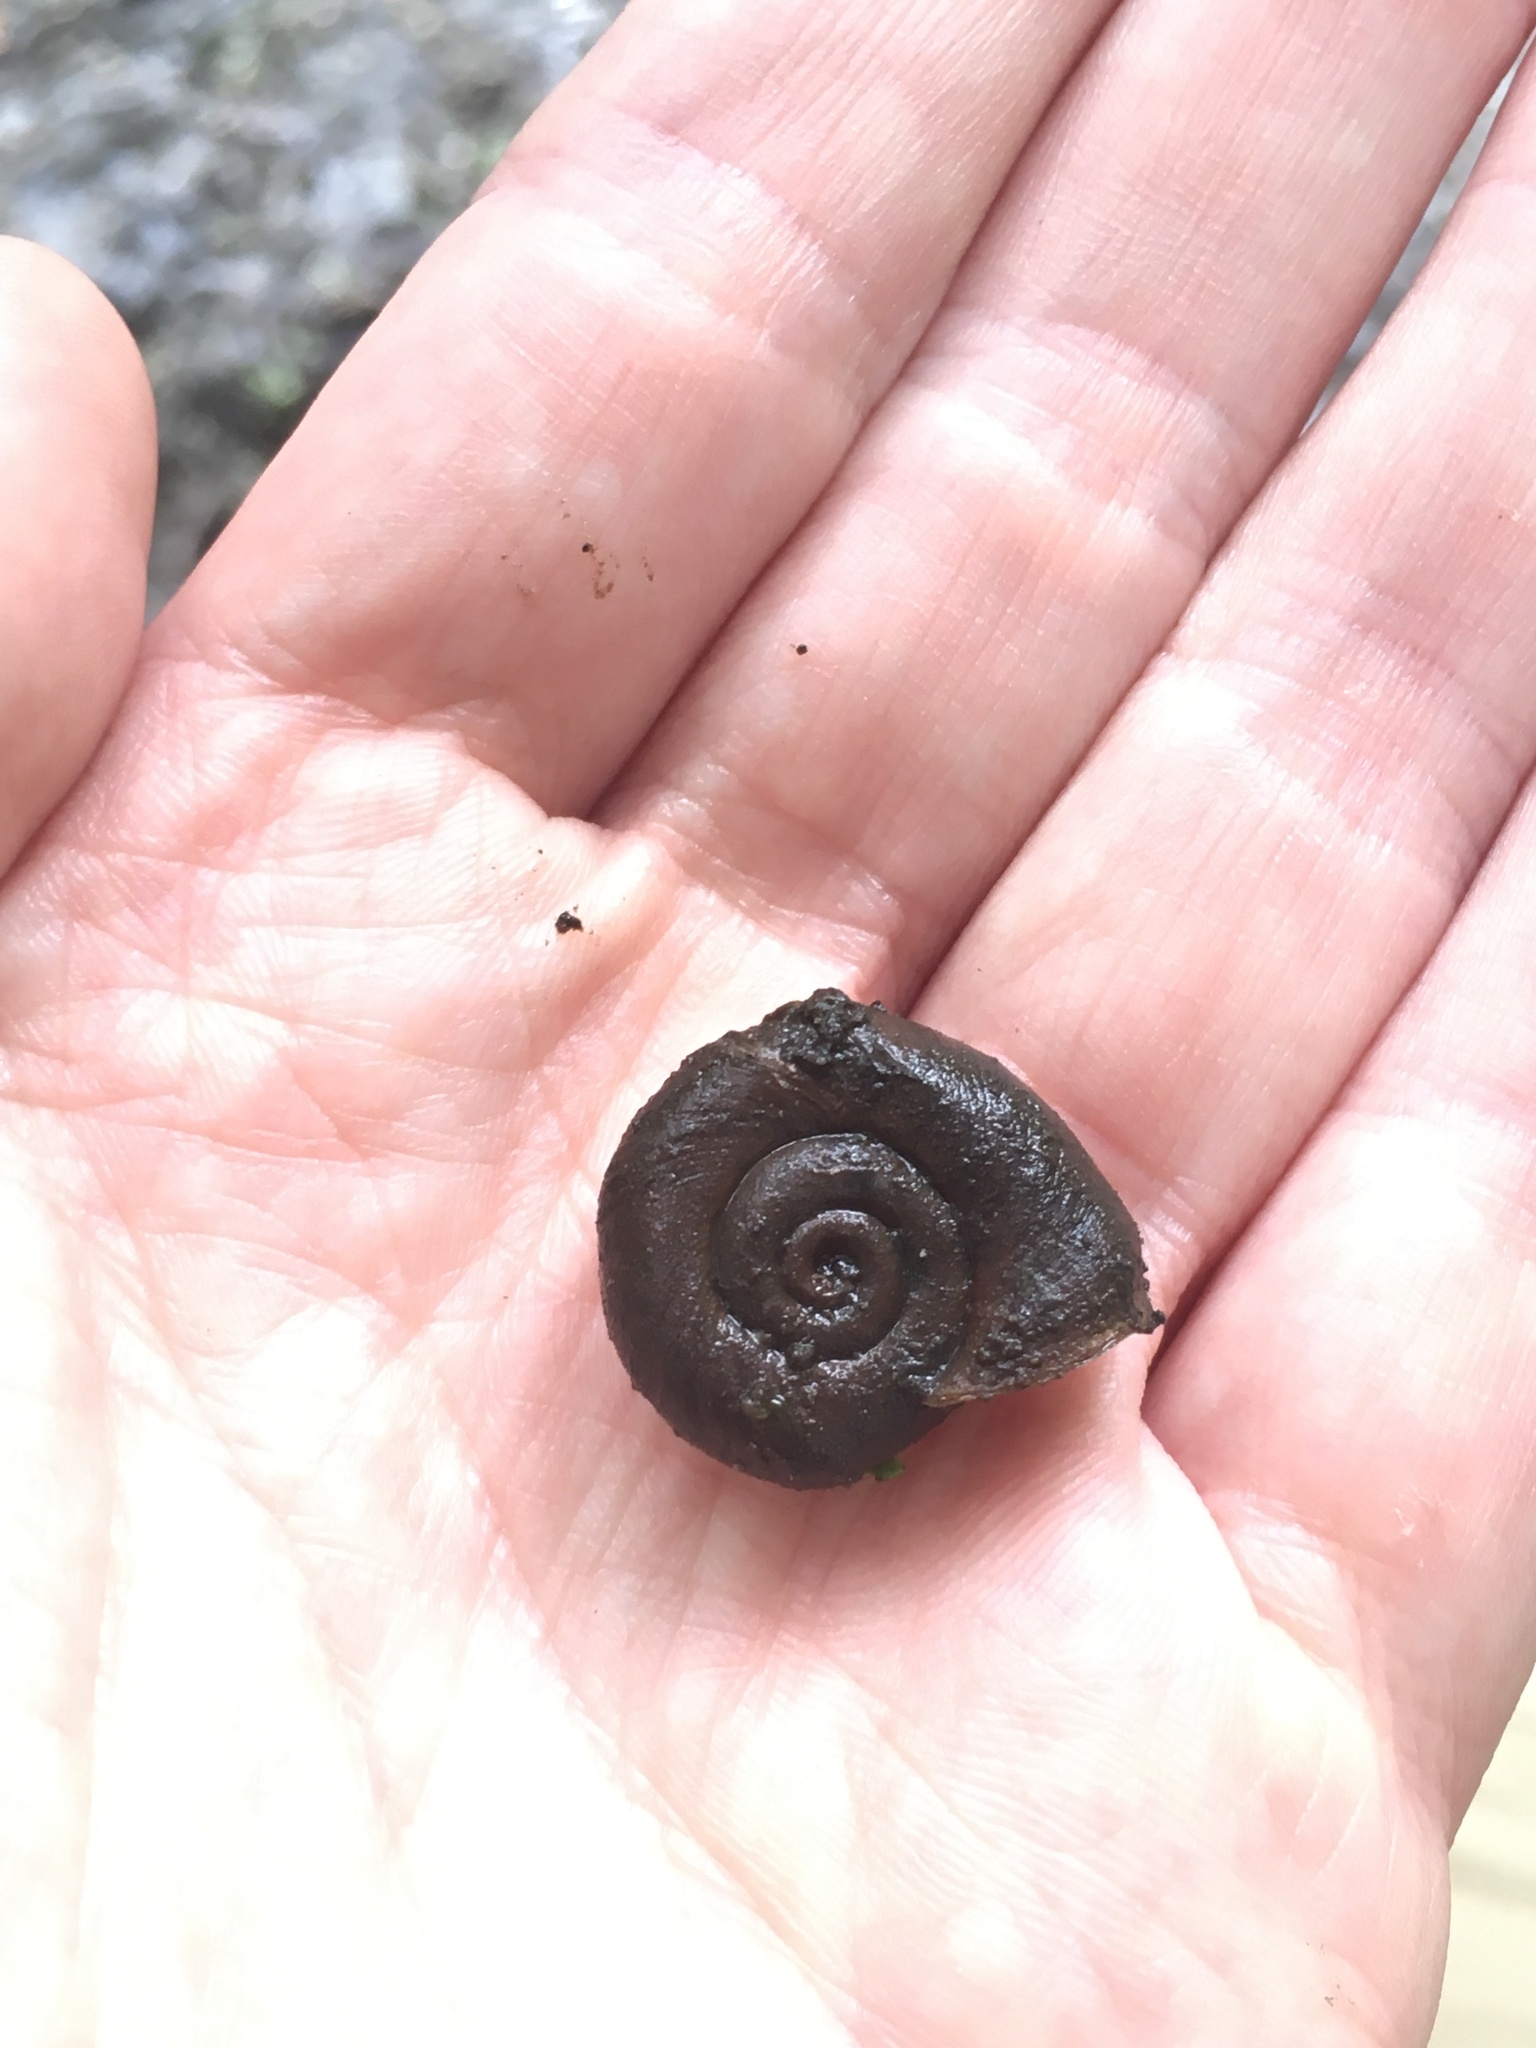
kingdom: Animalia
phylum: Mollusca
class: Gastropoda
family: Planorbidae
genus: Planorbella
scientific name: Planorbella trivolvis
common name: Marsh rams-horn
